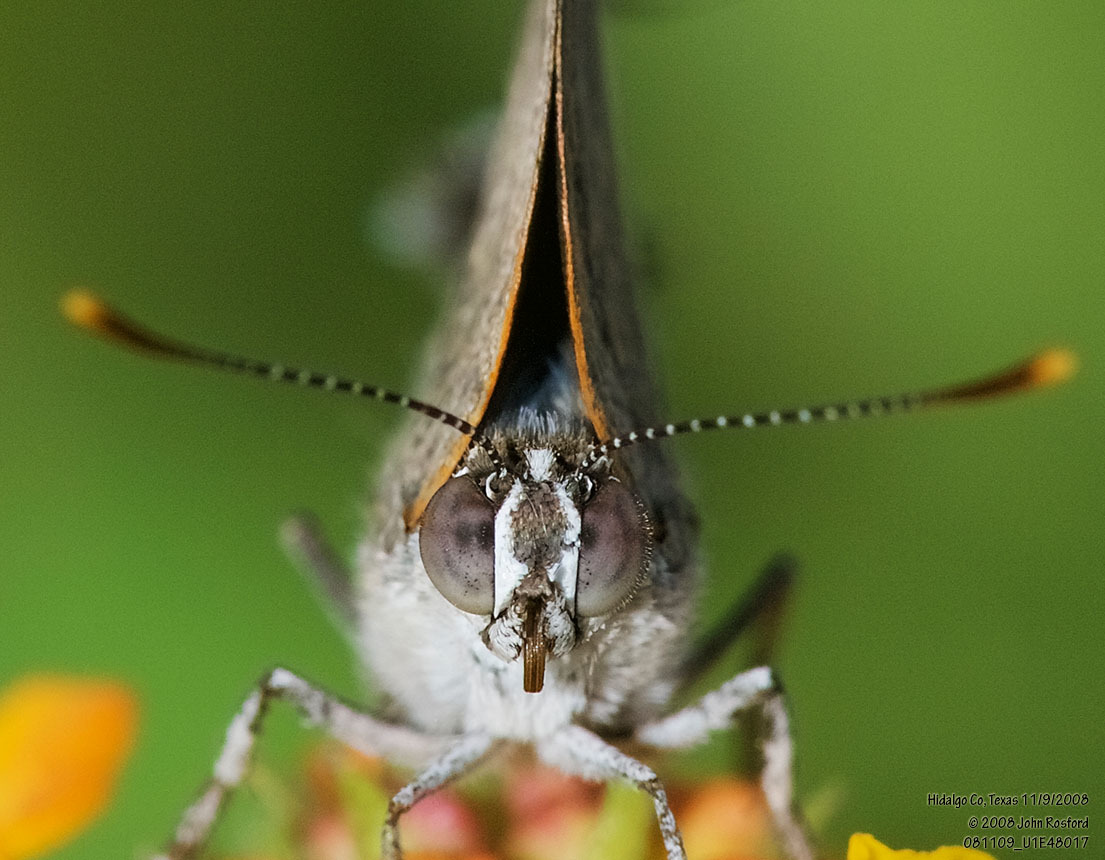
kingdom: Animalia
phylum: Arthropoda
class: Insecta
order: Lepidoptera
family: Lycaenidae
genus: Thecla
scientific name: Thecla marius
